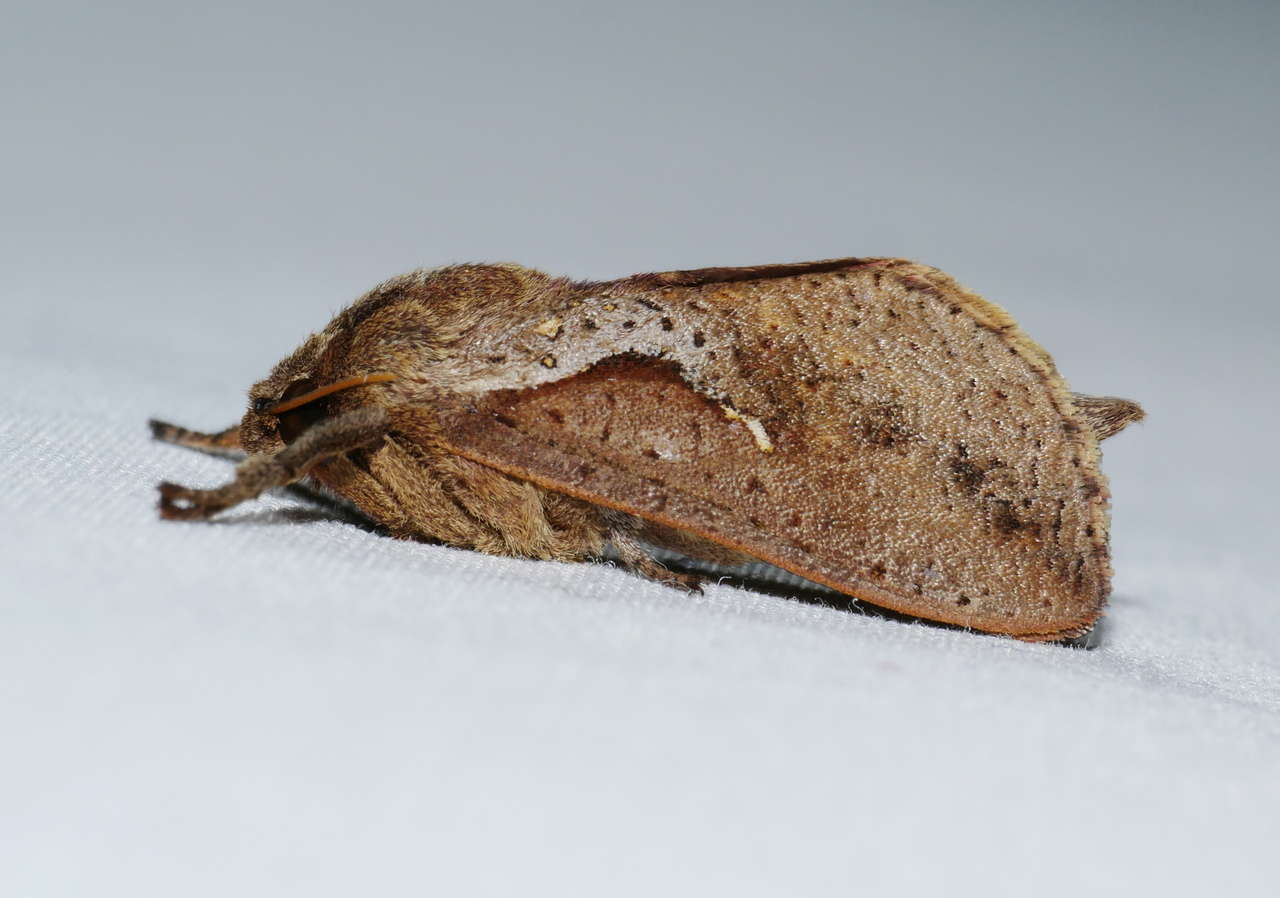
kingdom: Animalia
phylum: Arthropoda
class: Insecta
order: Lepidoptera
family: Hepialidae
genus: Elhamma
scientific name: Elhamma australasiae
